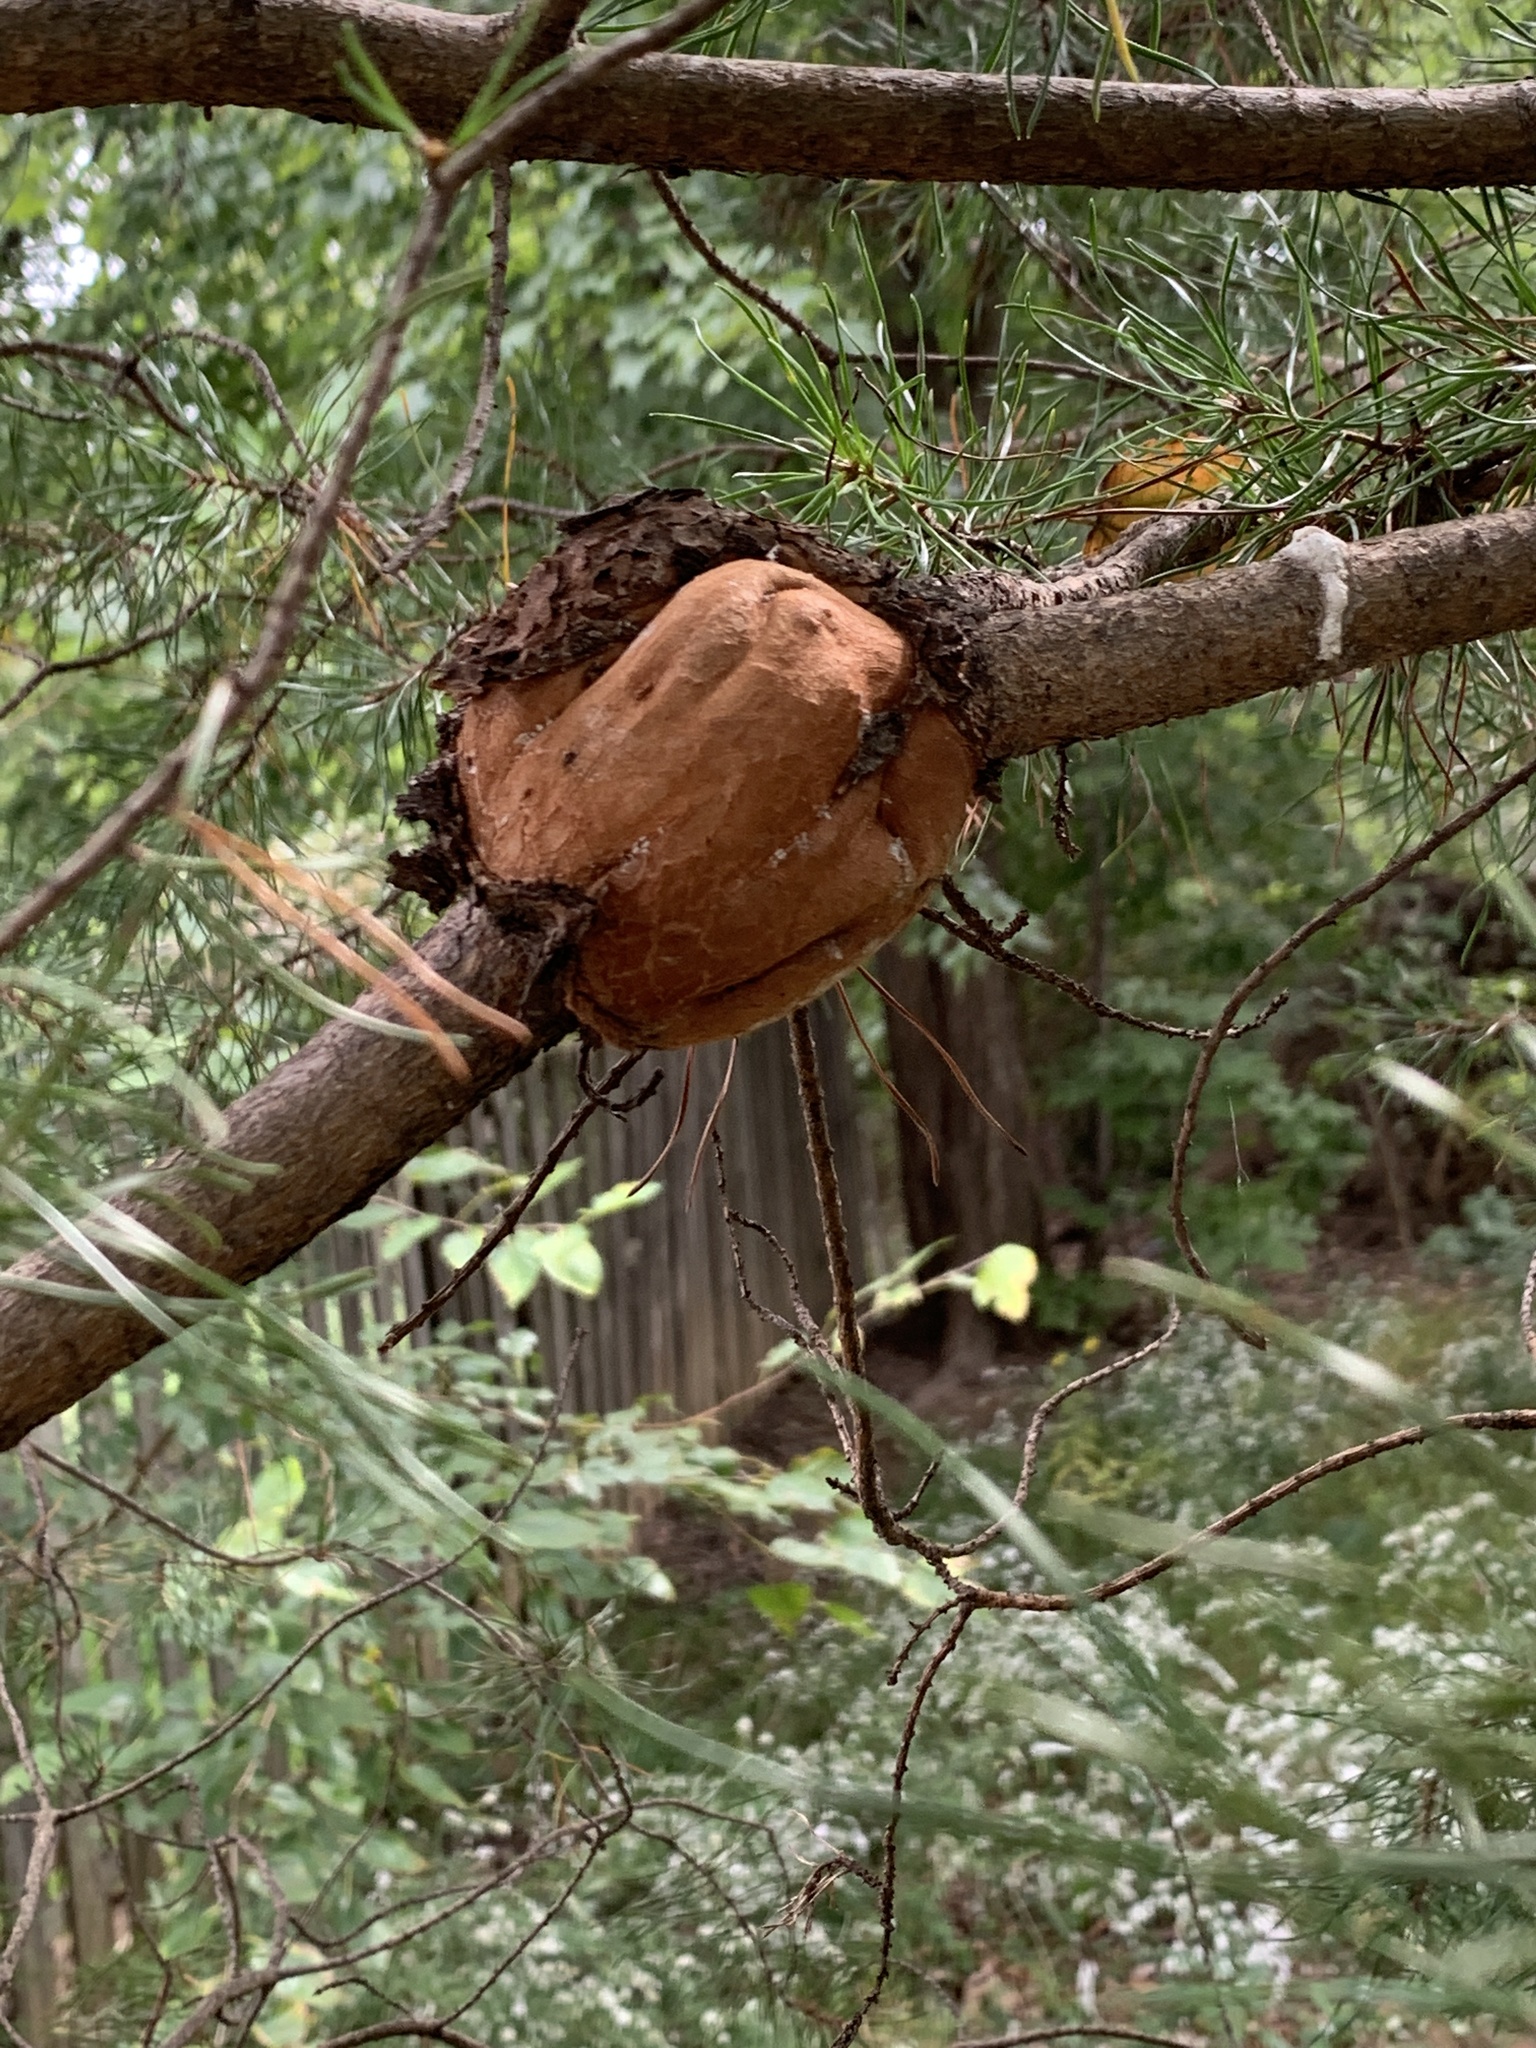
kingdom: Fungi
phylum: Basidiomycota
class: Pucciniomycetes
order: Pucciniales
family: Cronartiaceae
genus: Cronartium
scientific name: Cronartium quercuum
